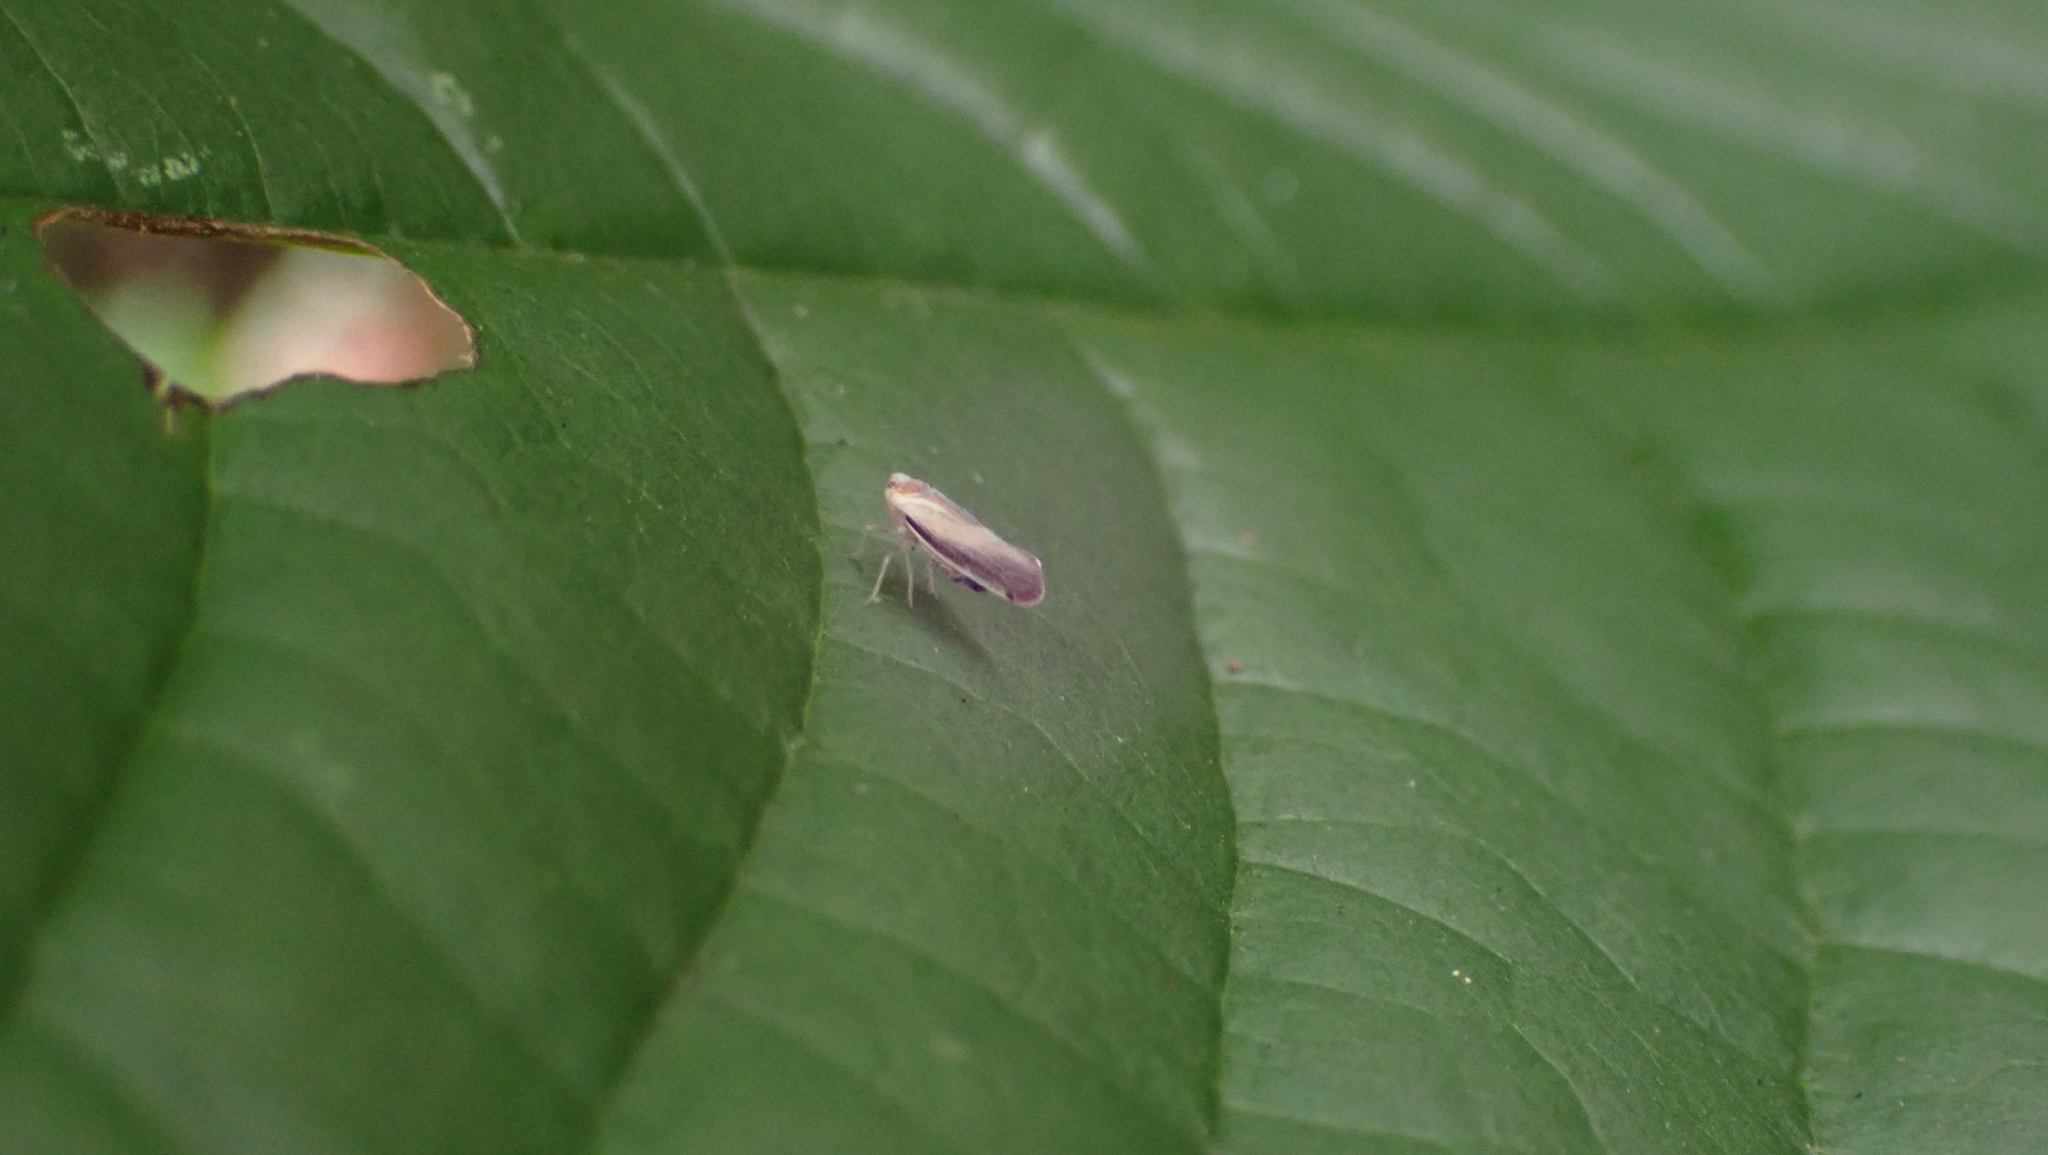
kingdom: Animalia
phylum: Arthropoda
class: Insecta
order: Hemiptera
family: Derbidae
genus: Omolicna
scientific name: Omolicna uhleri
